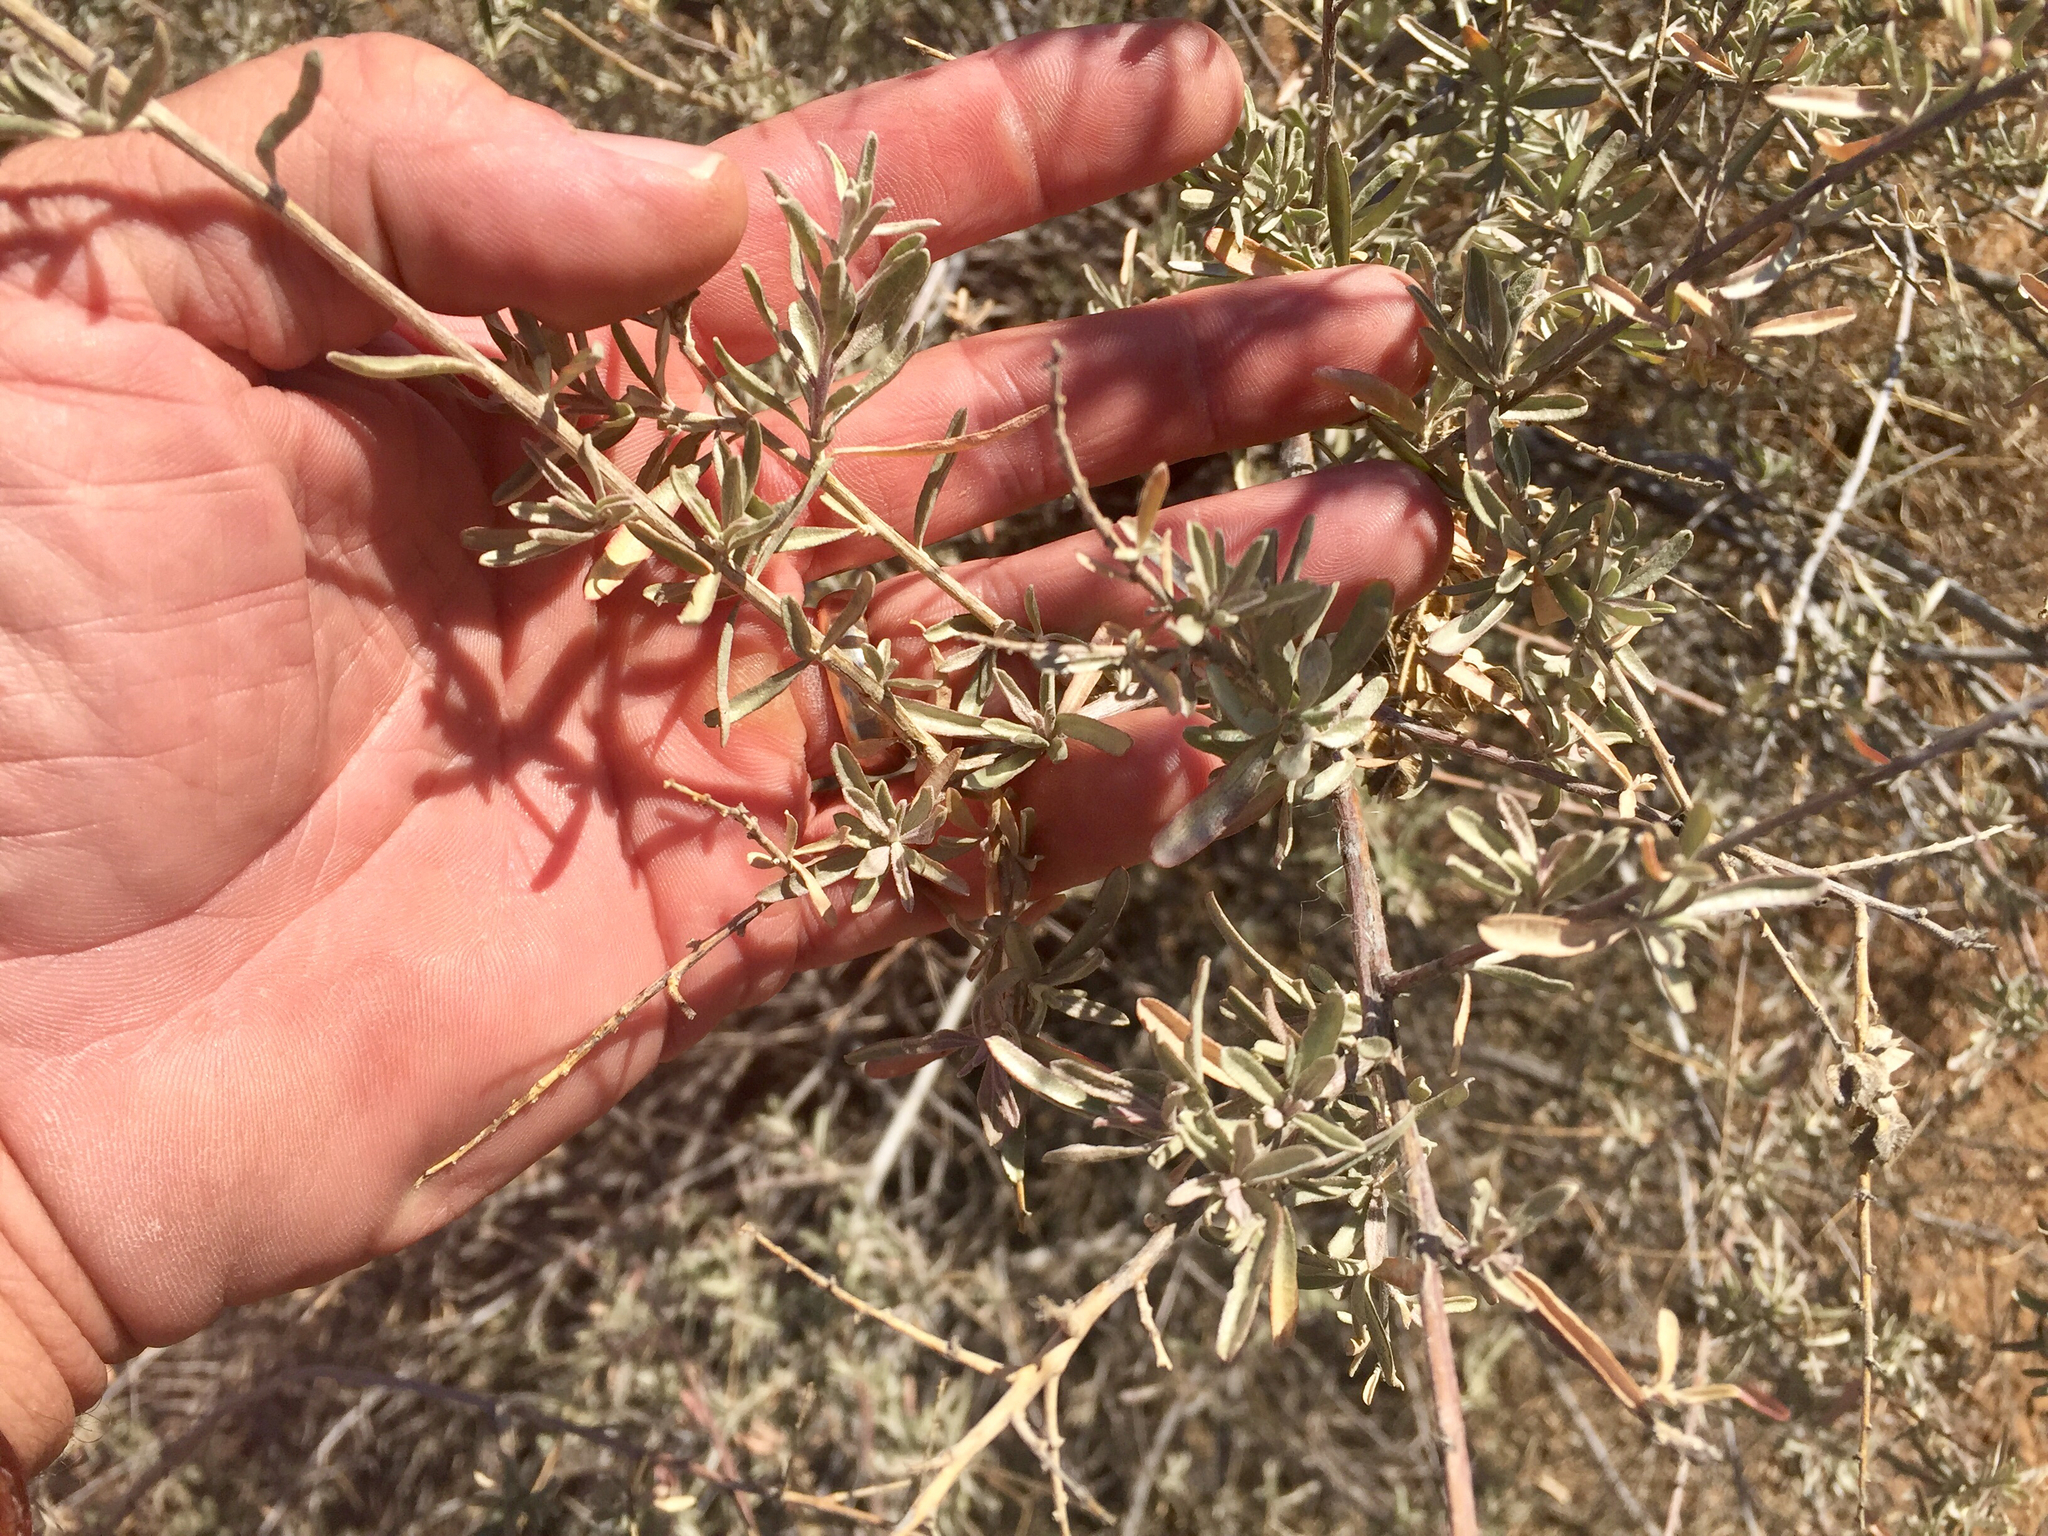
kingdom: Plantae
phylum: Tracheophyta
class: Magnoliopsida
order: Caryophyllales
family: Amaranthaceae
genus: Atriplex
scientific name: Atriplex canescens
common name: Four-wing saltbush
